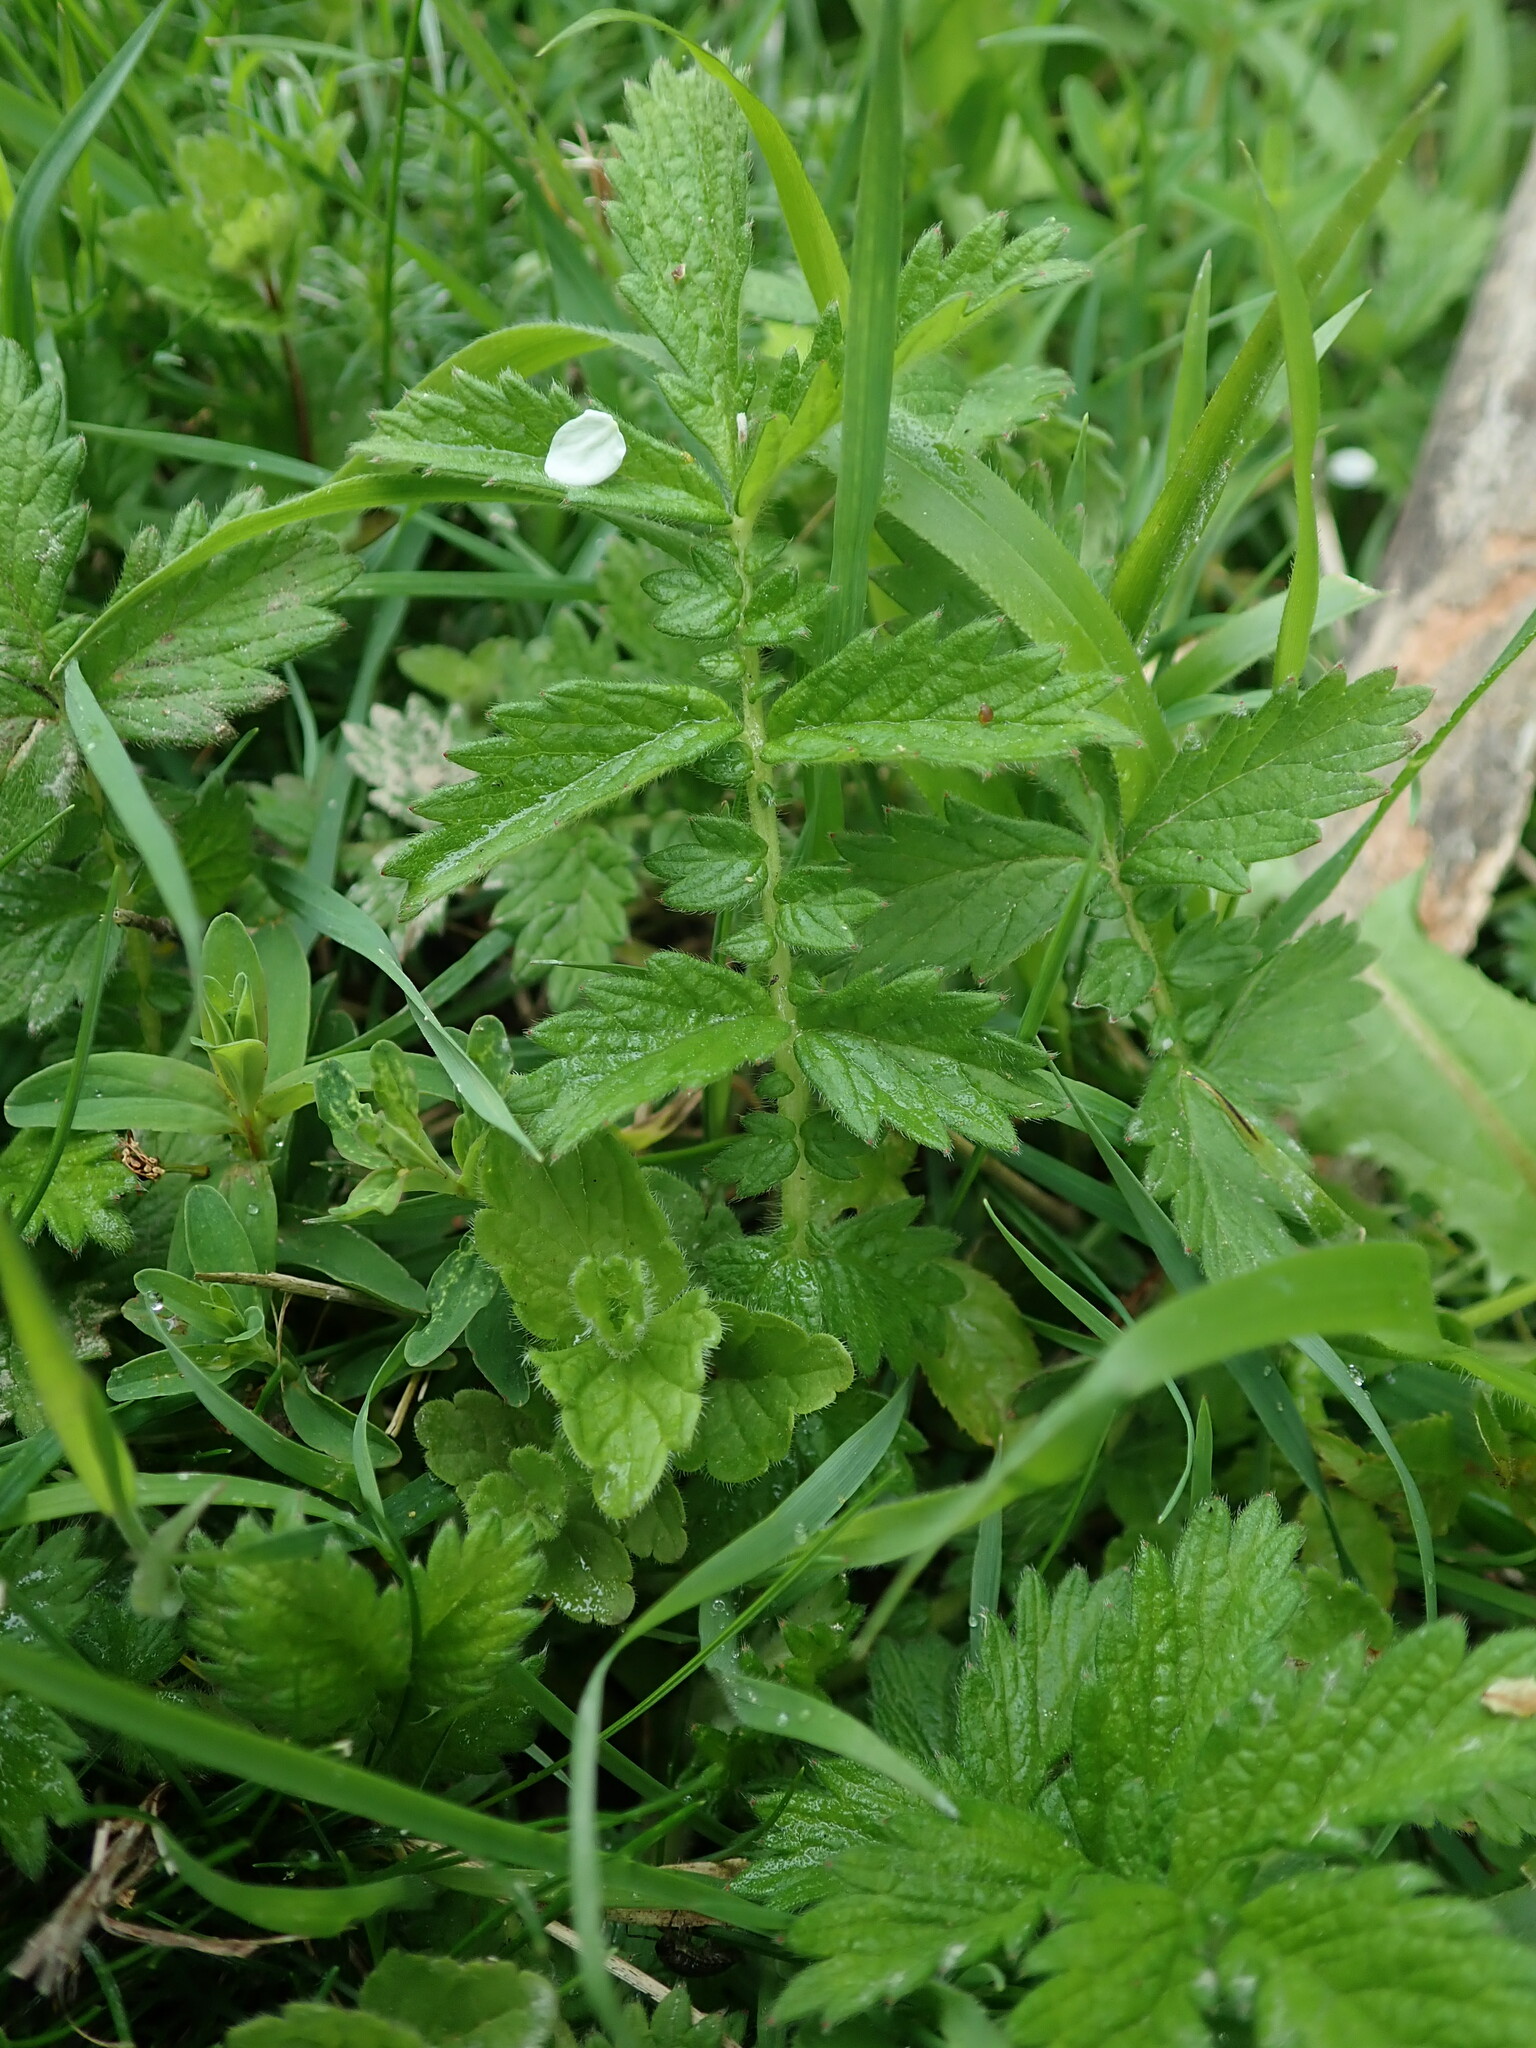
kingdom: Plantae
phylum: Tracheophyta
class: Magnoliopsida
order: Rosales
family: Rosaceae
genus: Agrimonia
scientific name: Agrimonia eupatoria
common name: Agrimony
